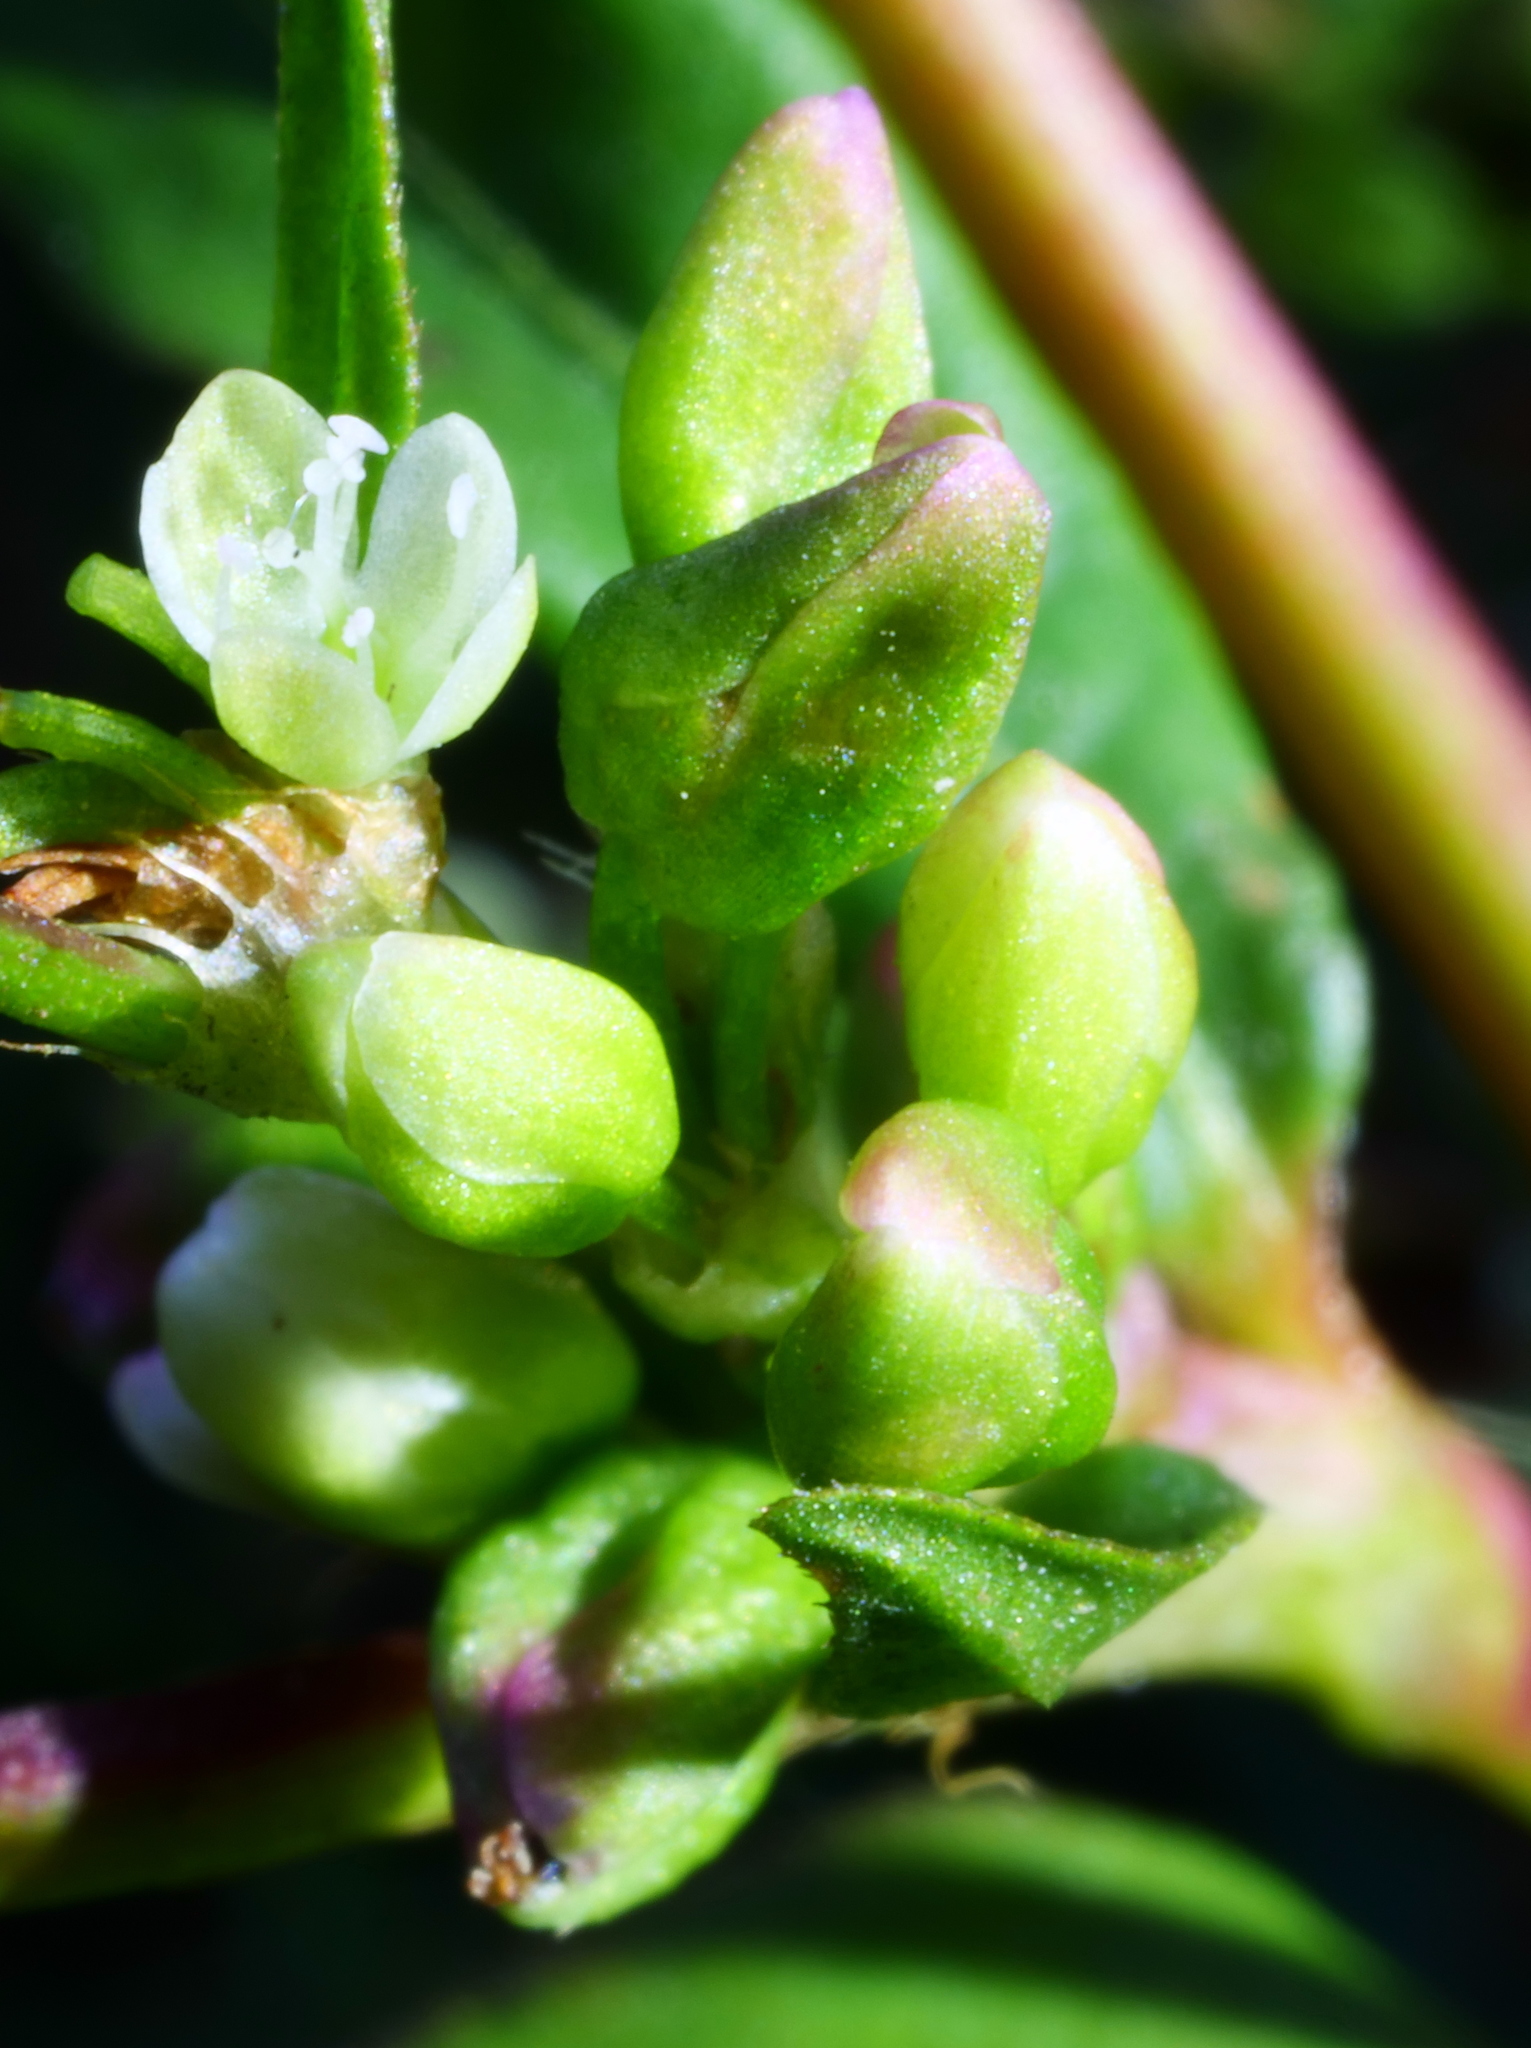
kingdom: Plantae
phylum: Tracheophyta
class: Magnoliopsida
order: Caryophyllales
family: Polygonaceae
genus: Persicaria
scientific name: Persicaria mitis
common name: Tasteless water-pepper
